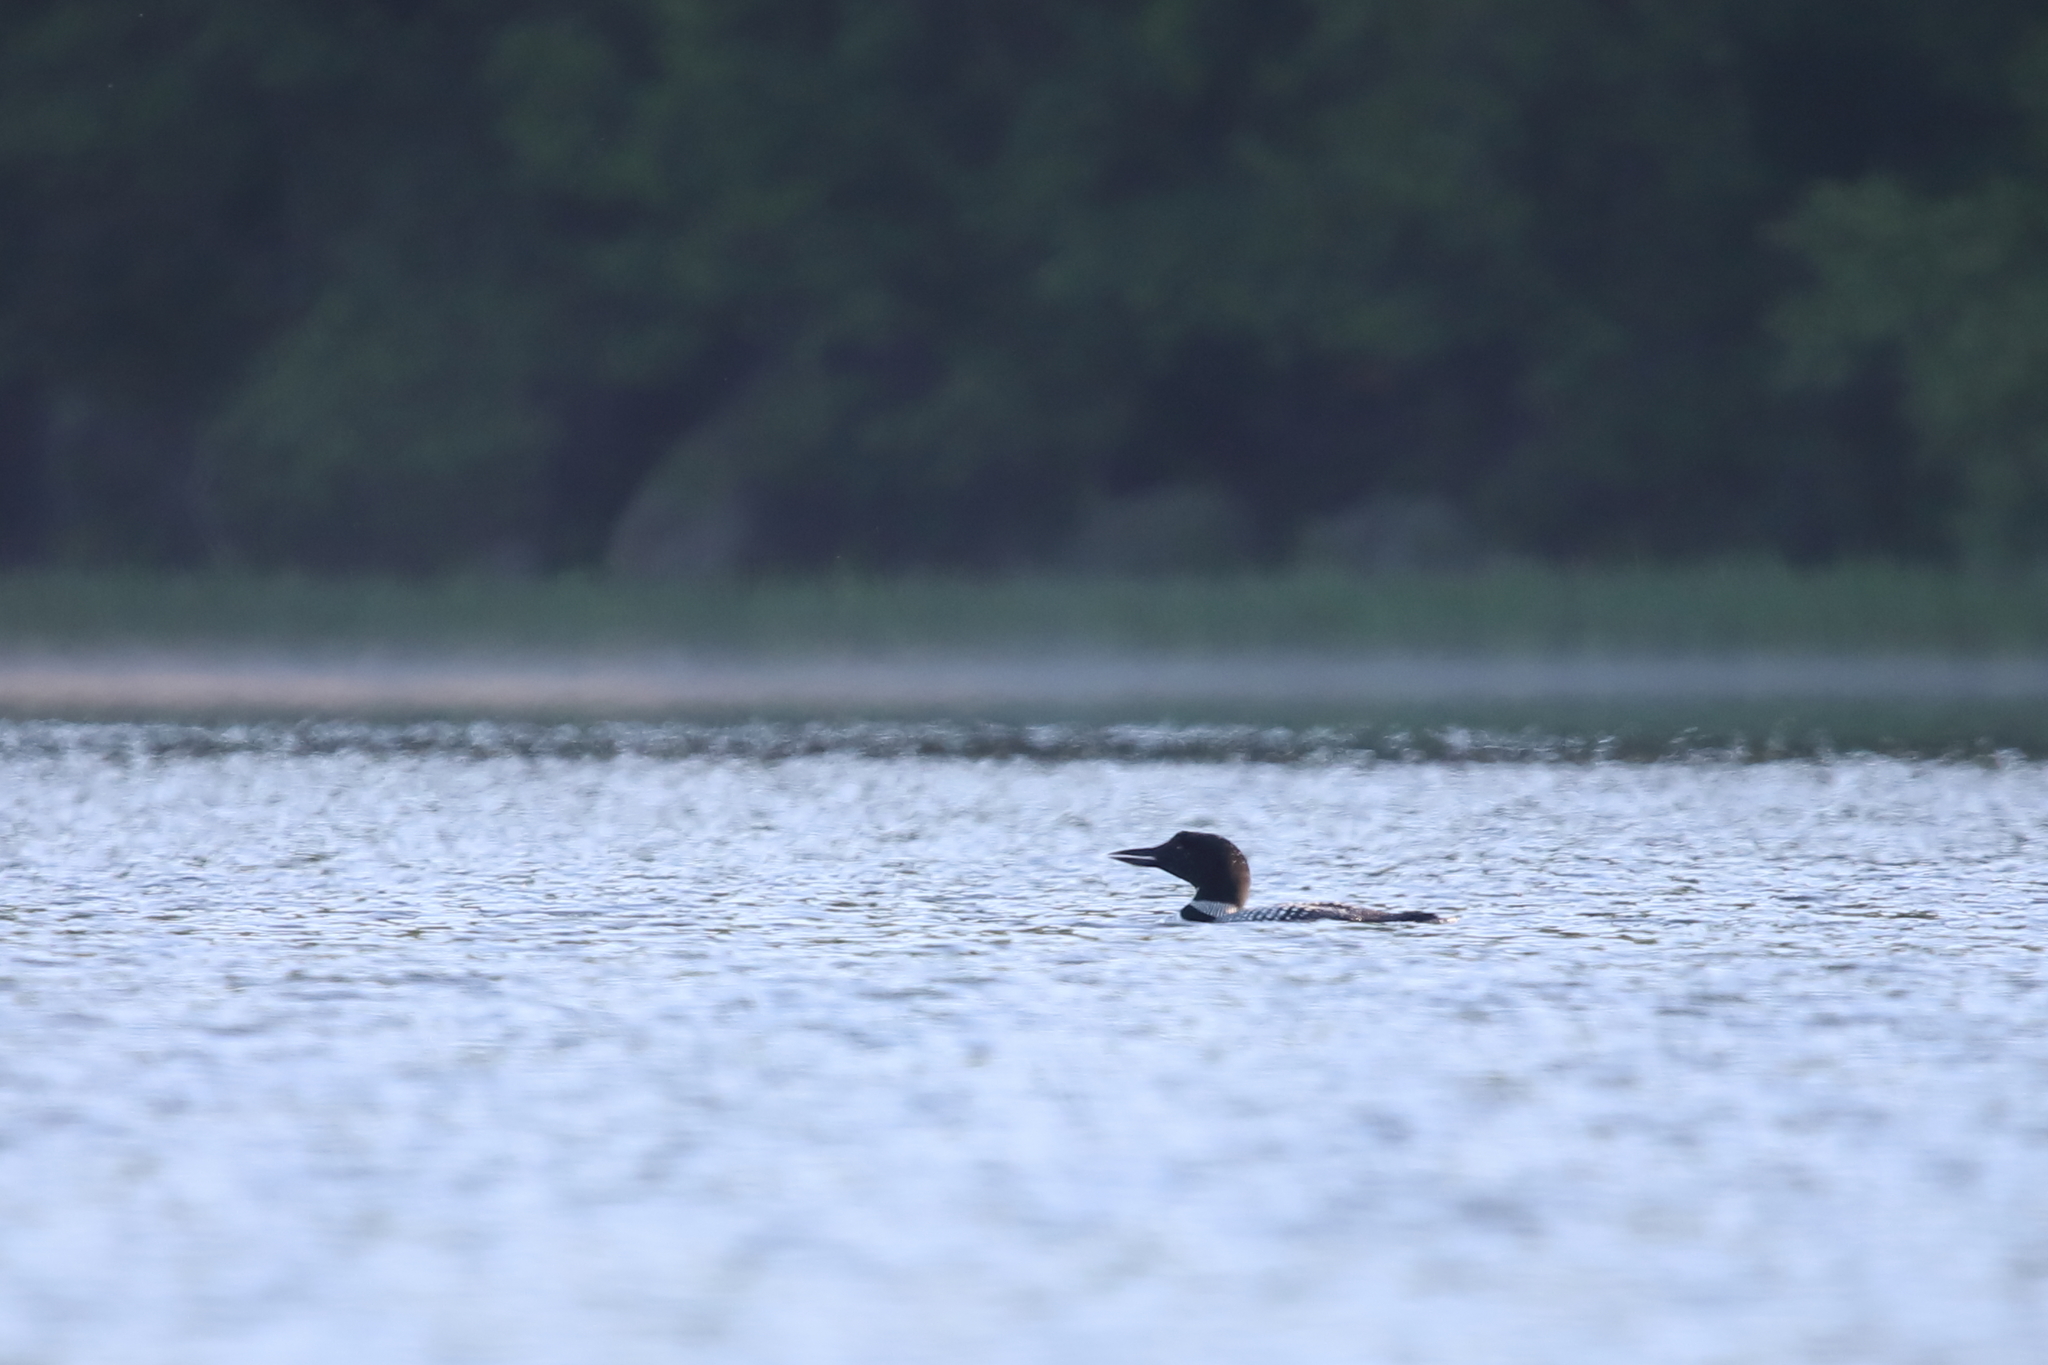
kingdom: Animalia
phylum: Chordata
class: Aves
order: Gaviiformes
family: Gaviidae
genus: Gavia
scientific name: Gavia immer
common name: Common loon
